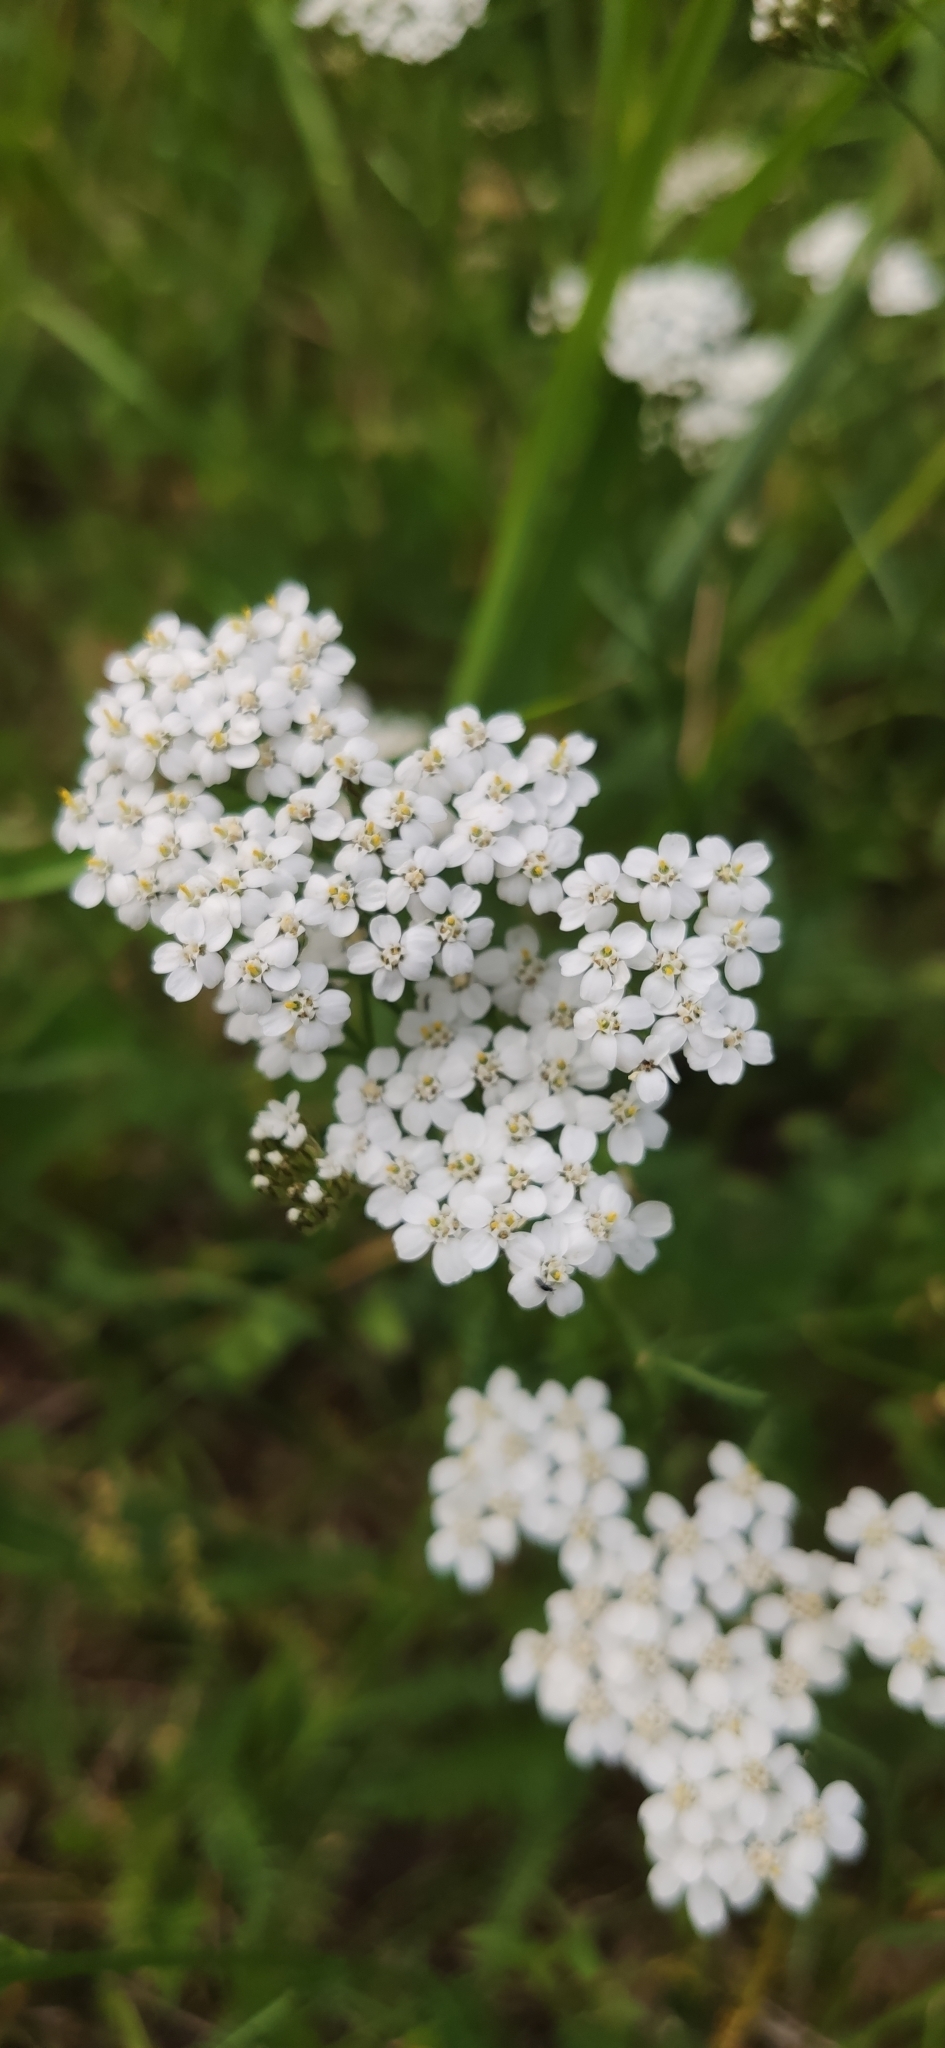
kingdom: Plantae
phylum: Tracheophyta
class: Magnoliopsida
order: Asterales
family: Asteraceae
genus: Achillea
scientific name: Achillea millefolium
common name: Yarrow
